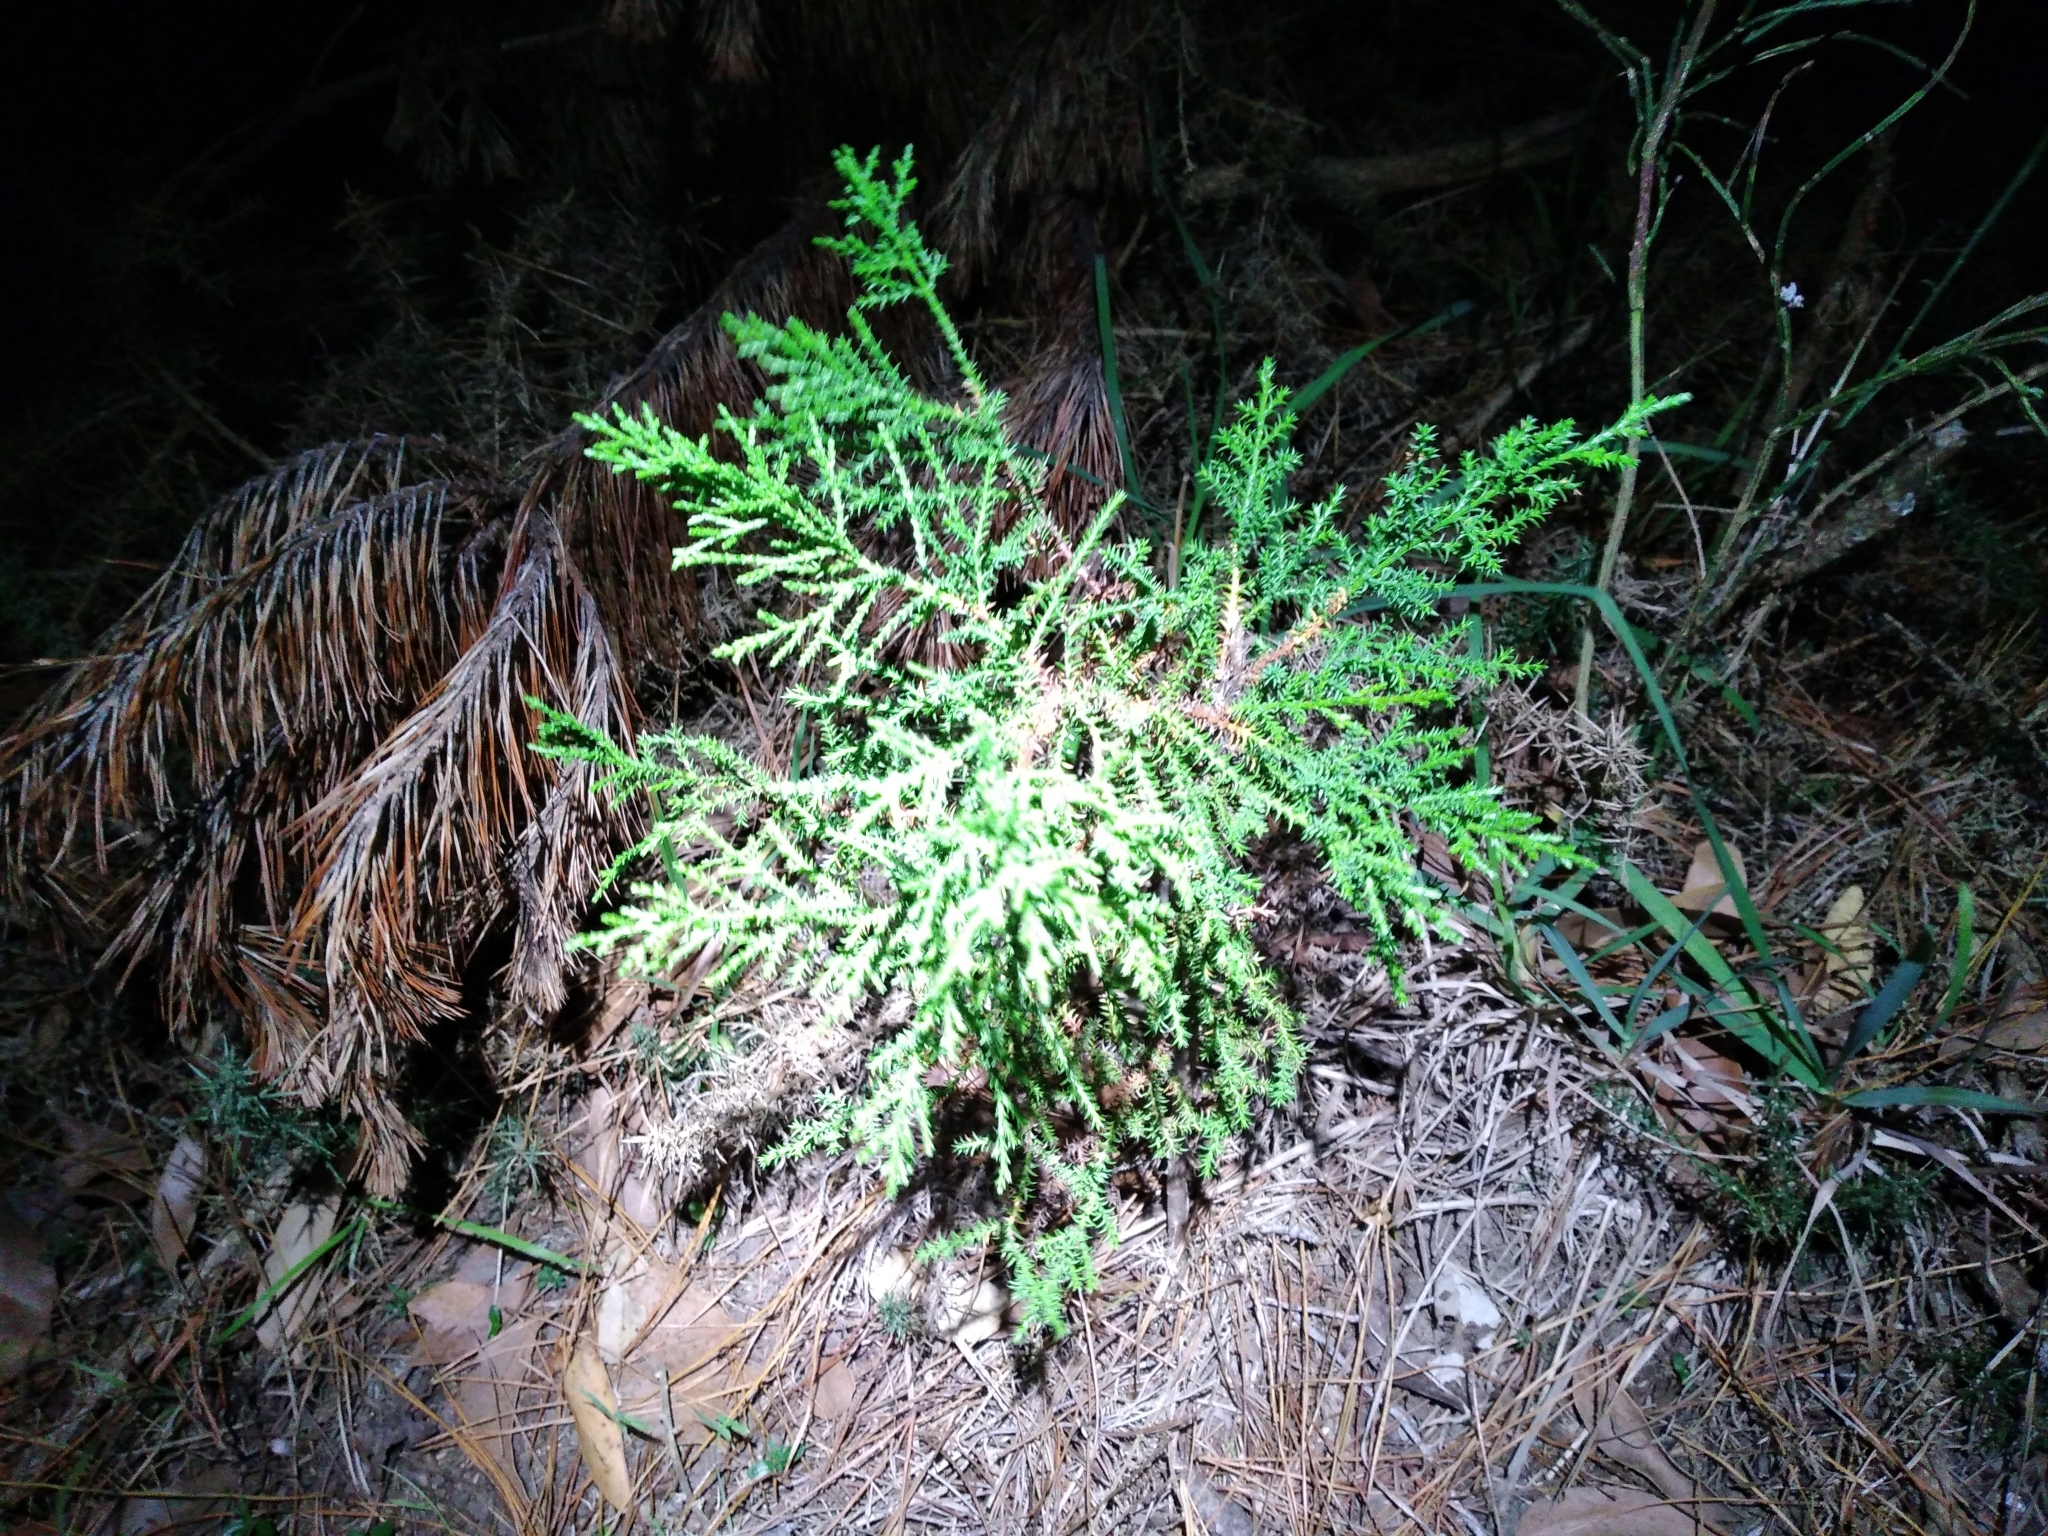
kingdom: Plantae
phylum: Tracheophyta
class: Pinopsida
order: Pinales
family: Cupressaceae
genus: Cupressus
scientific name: Cupressus macrocarpa
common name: Monterey cypress
